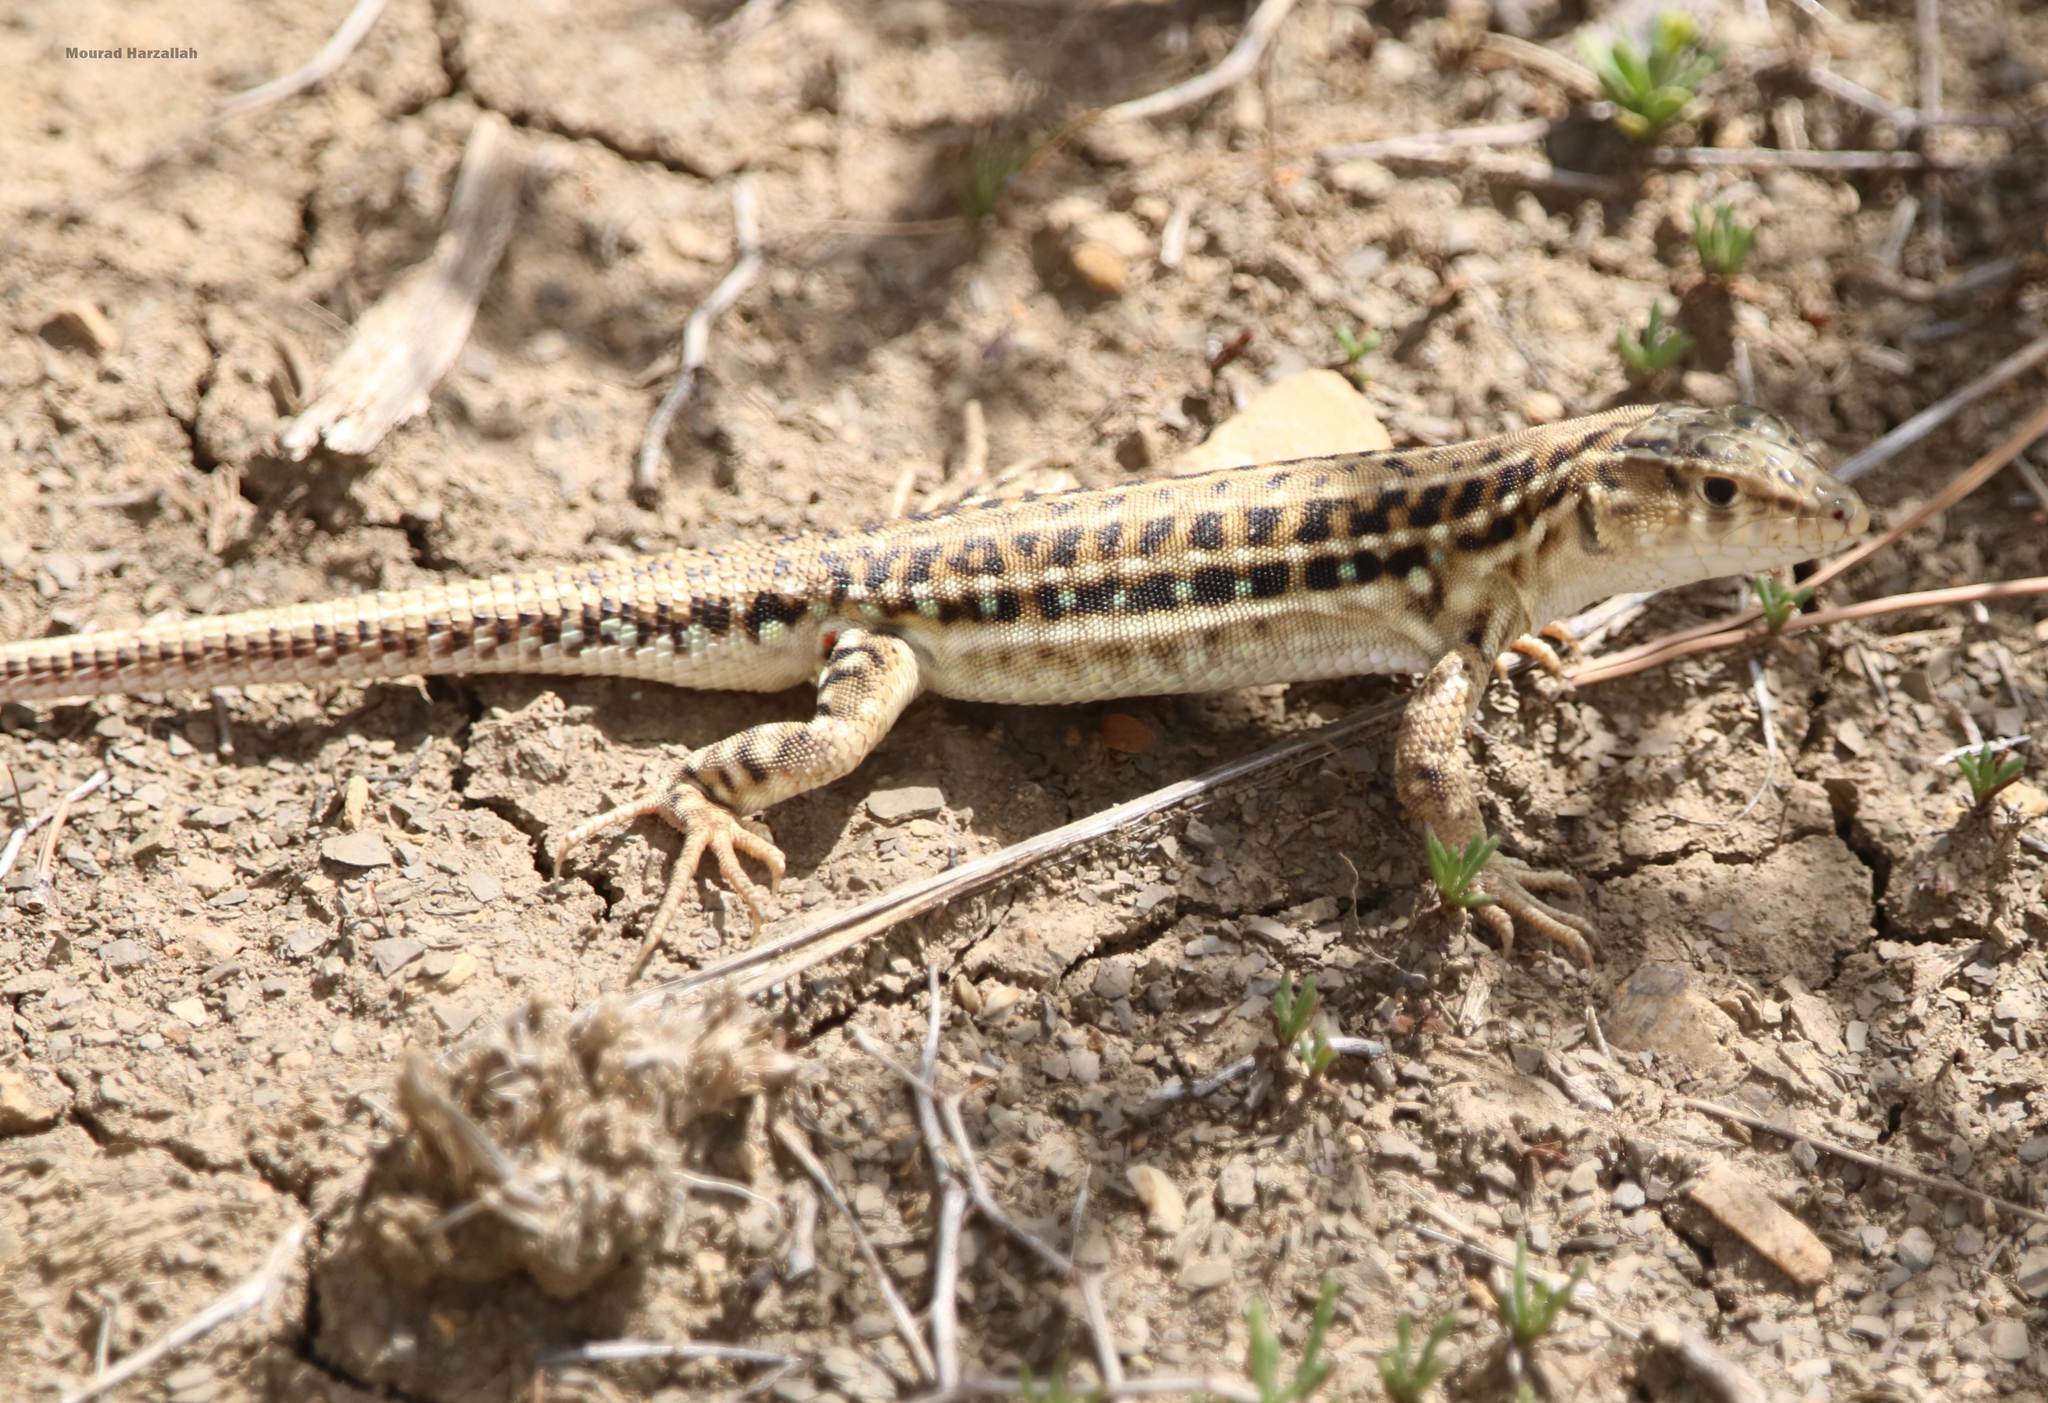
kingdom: Animalia
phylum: Chordata
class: Squamata
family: Lacertidae
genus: Acanthodactylus
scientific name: Acanthodactylus erythrurus
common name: Spiny-footed lizard
